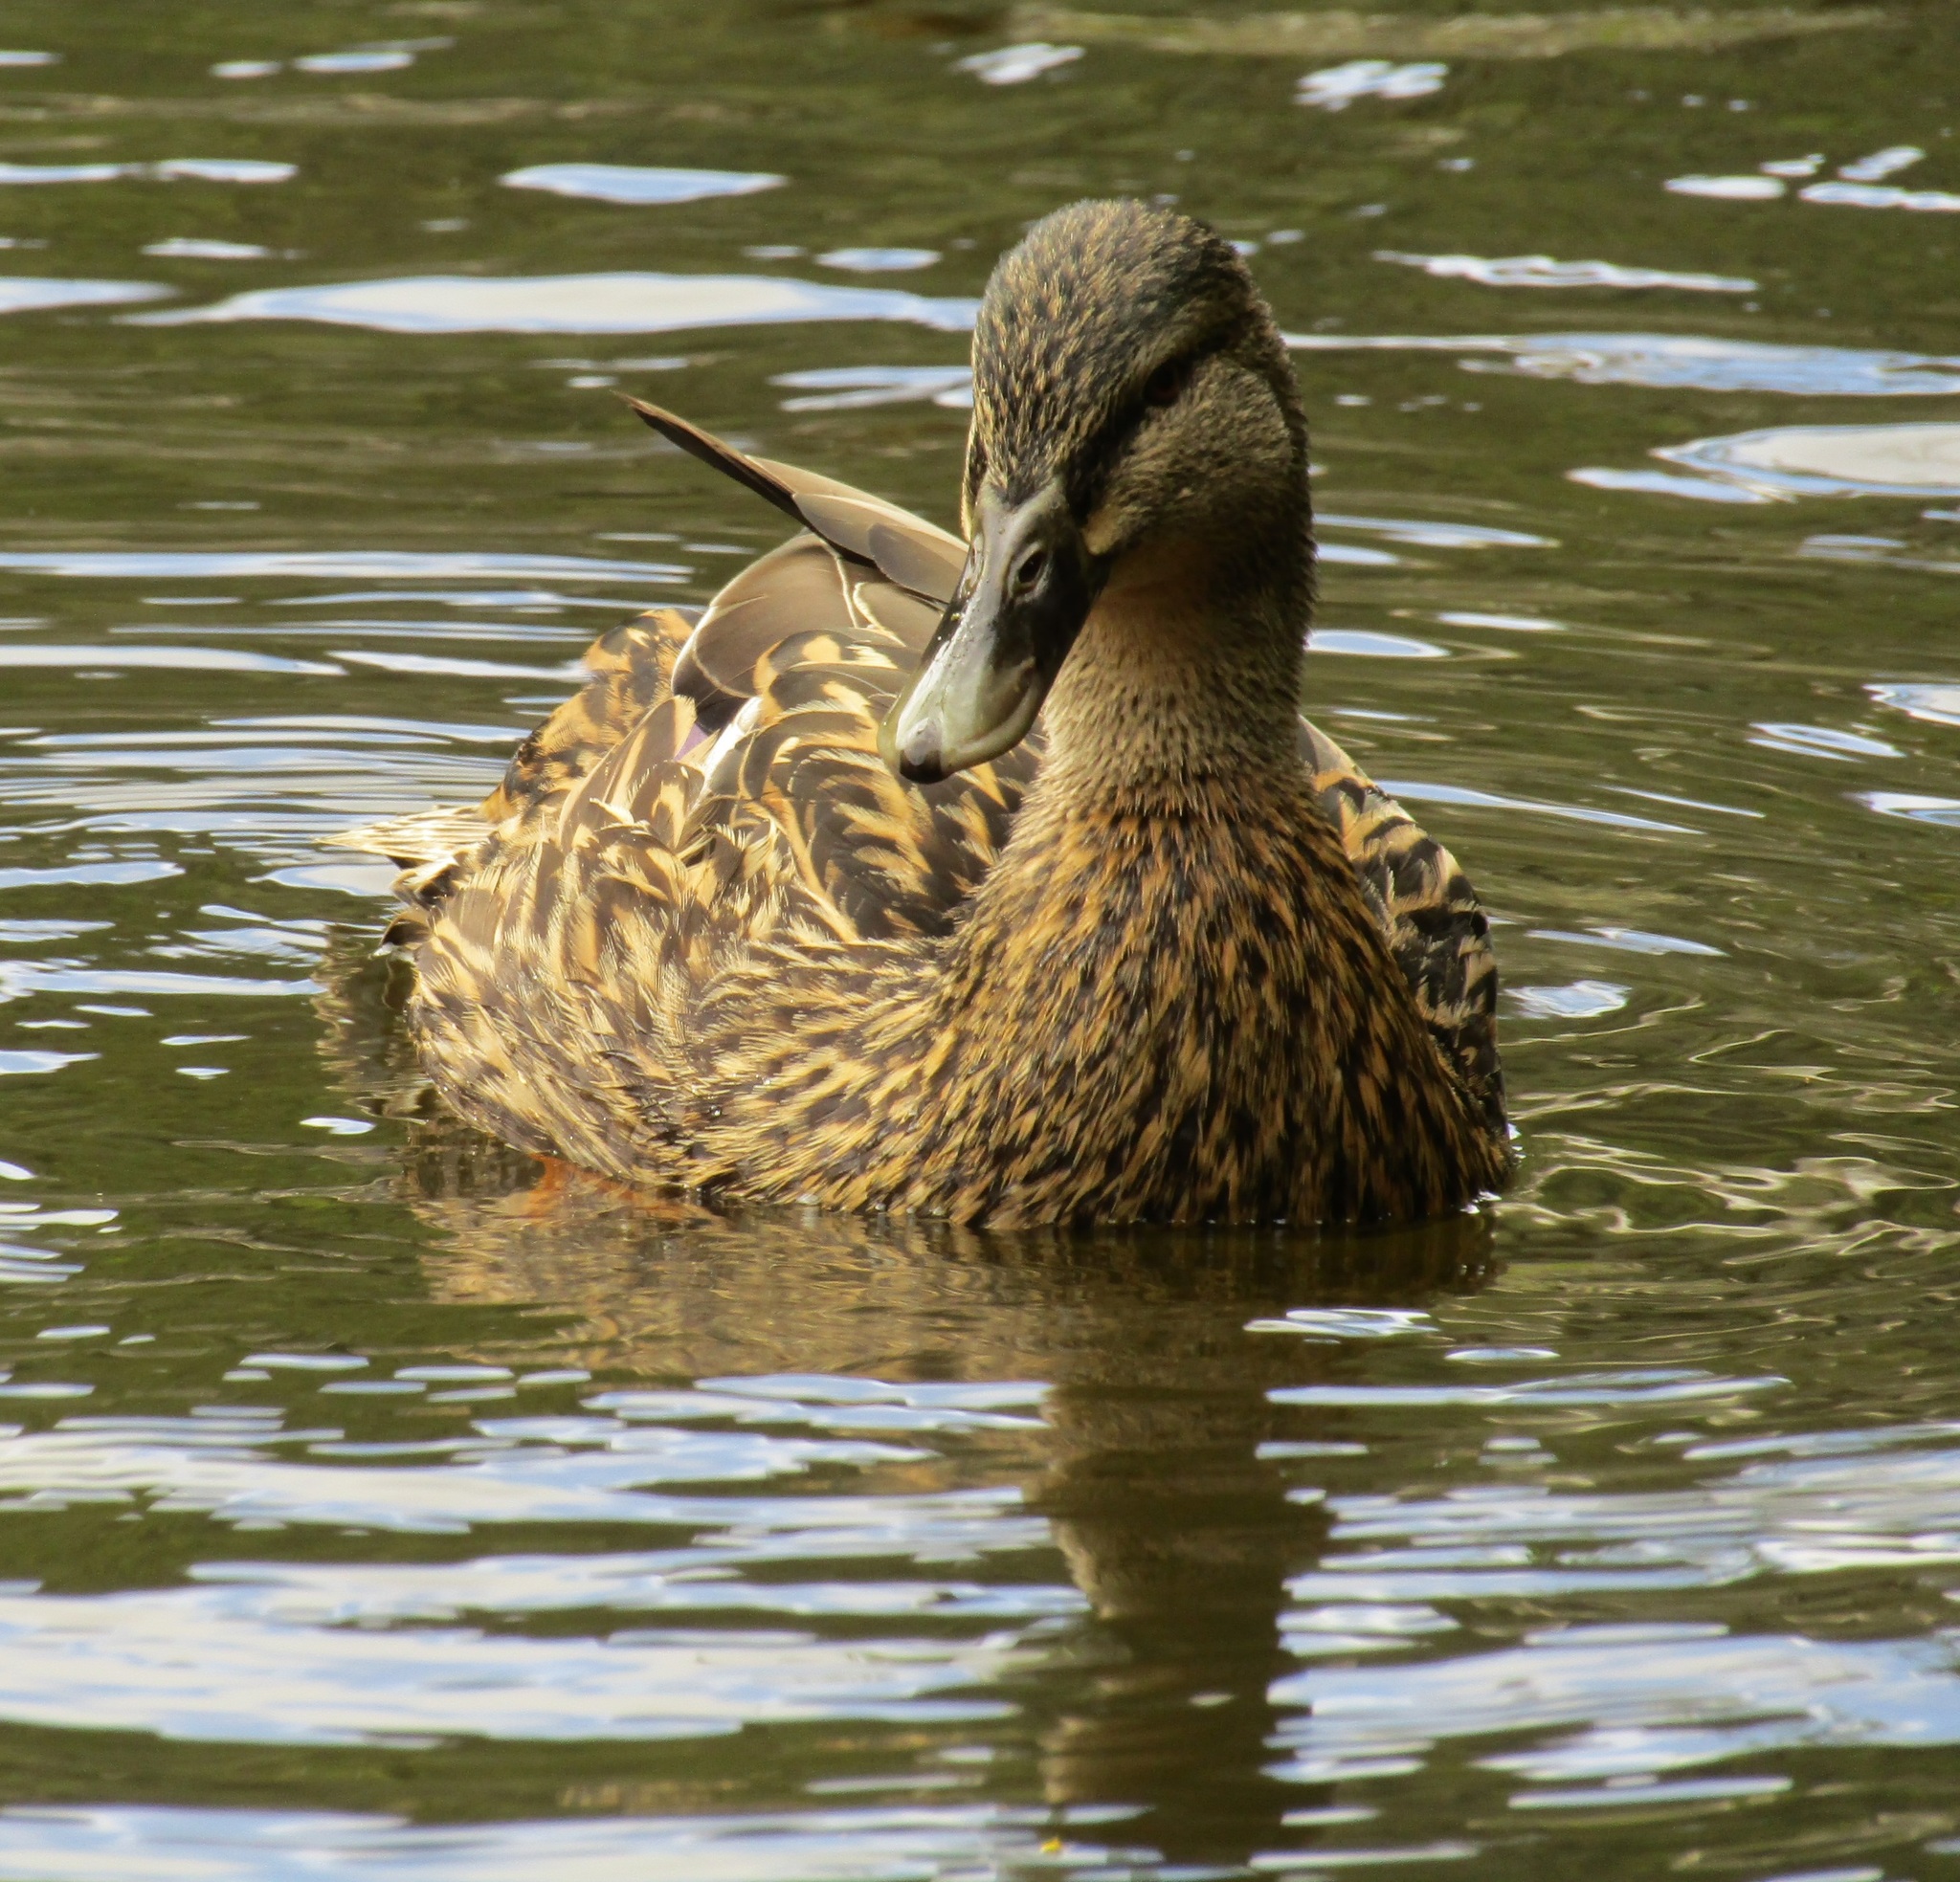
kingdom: Animalia
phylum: Chordata
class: Aves
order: Anseriformes
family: Anatidae
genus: Anas
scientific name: Anas
